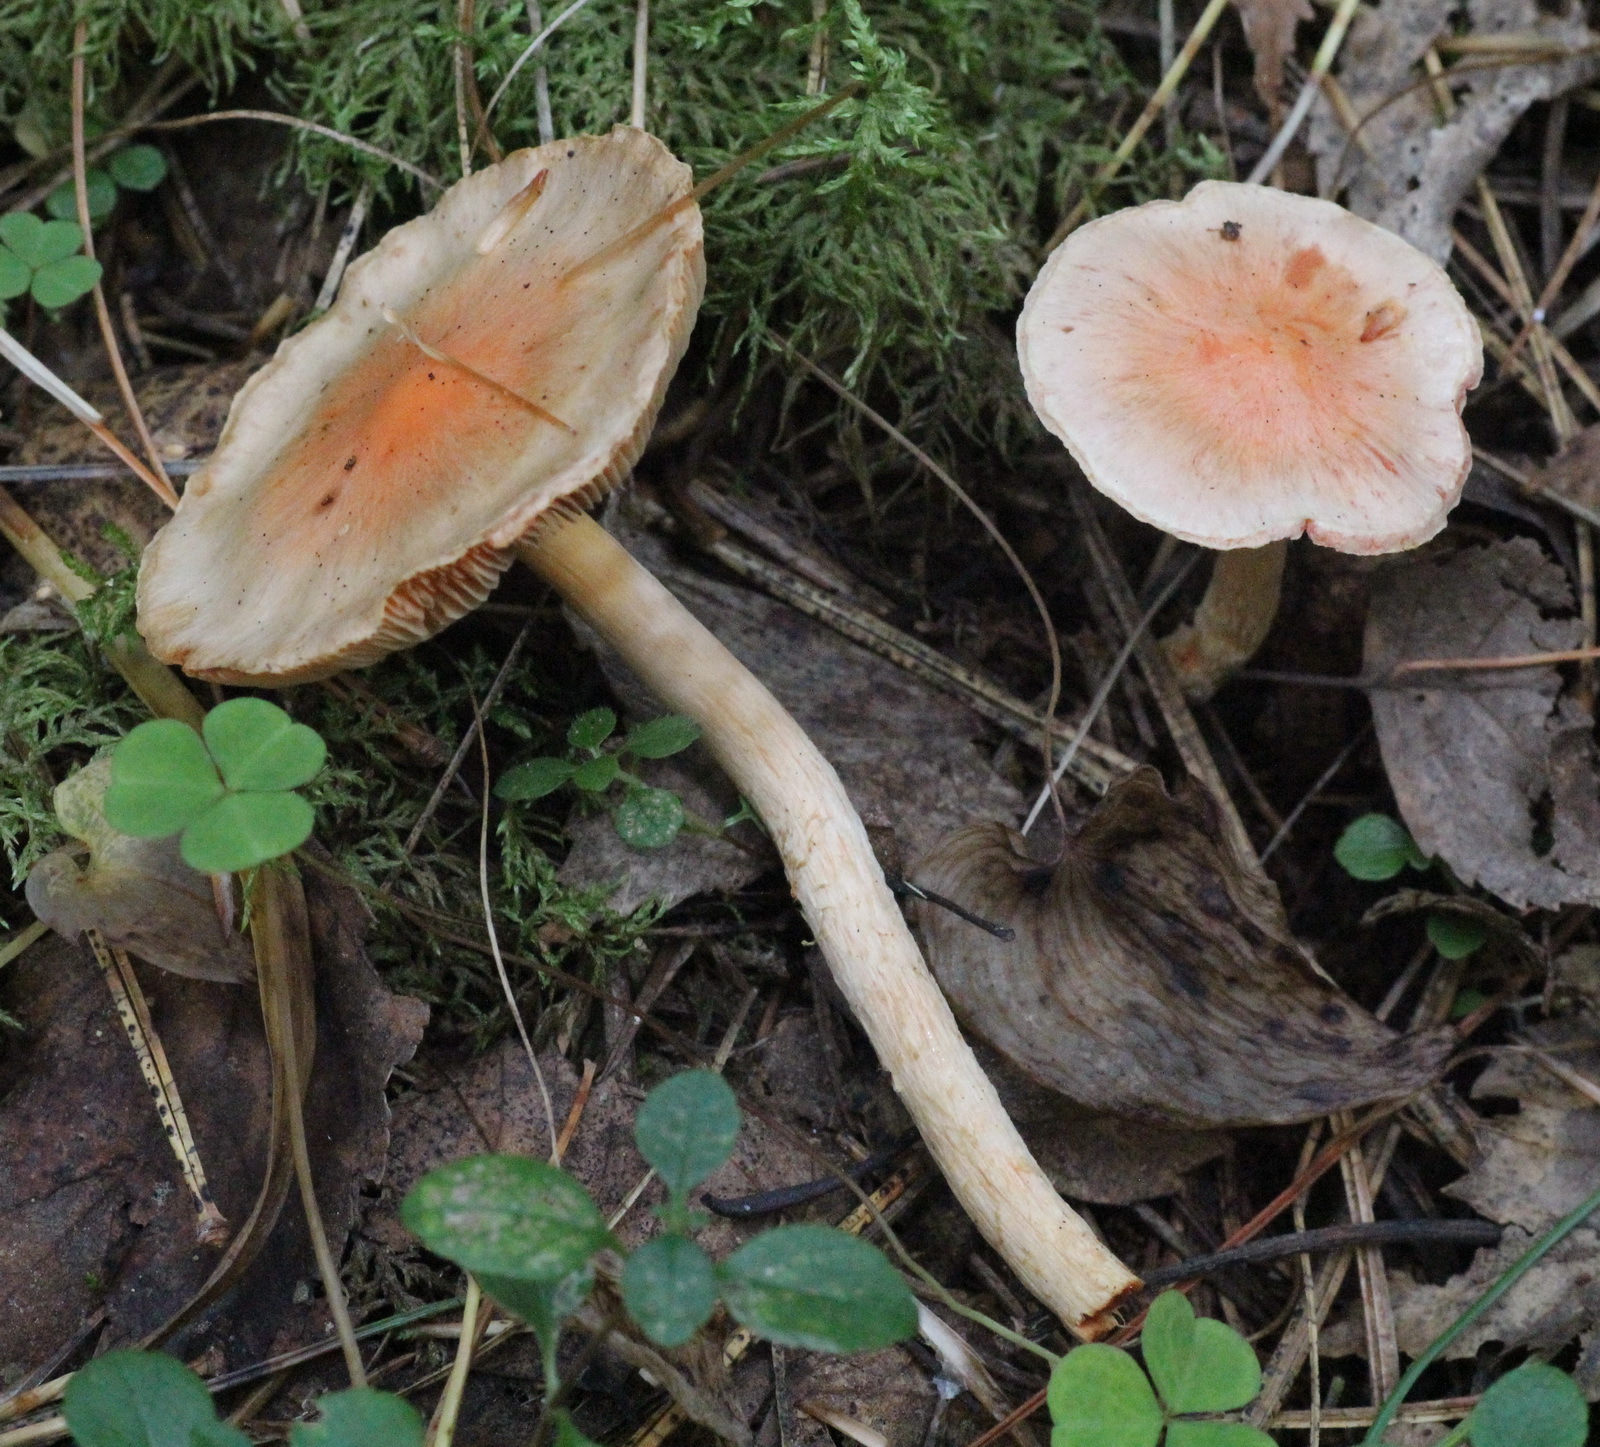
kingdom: Fungi
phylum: Basidiomycota
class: Agaricomycetes
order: Agaricales
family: Strophariaceae
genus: Pyrrhulomyces
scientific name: Pyrrhulomyces astragalinus
